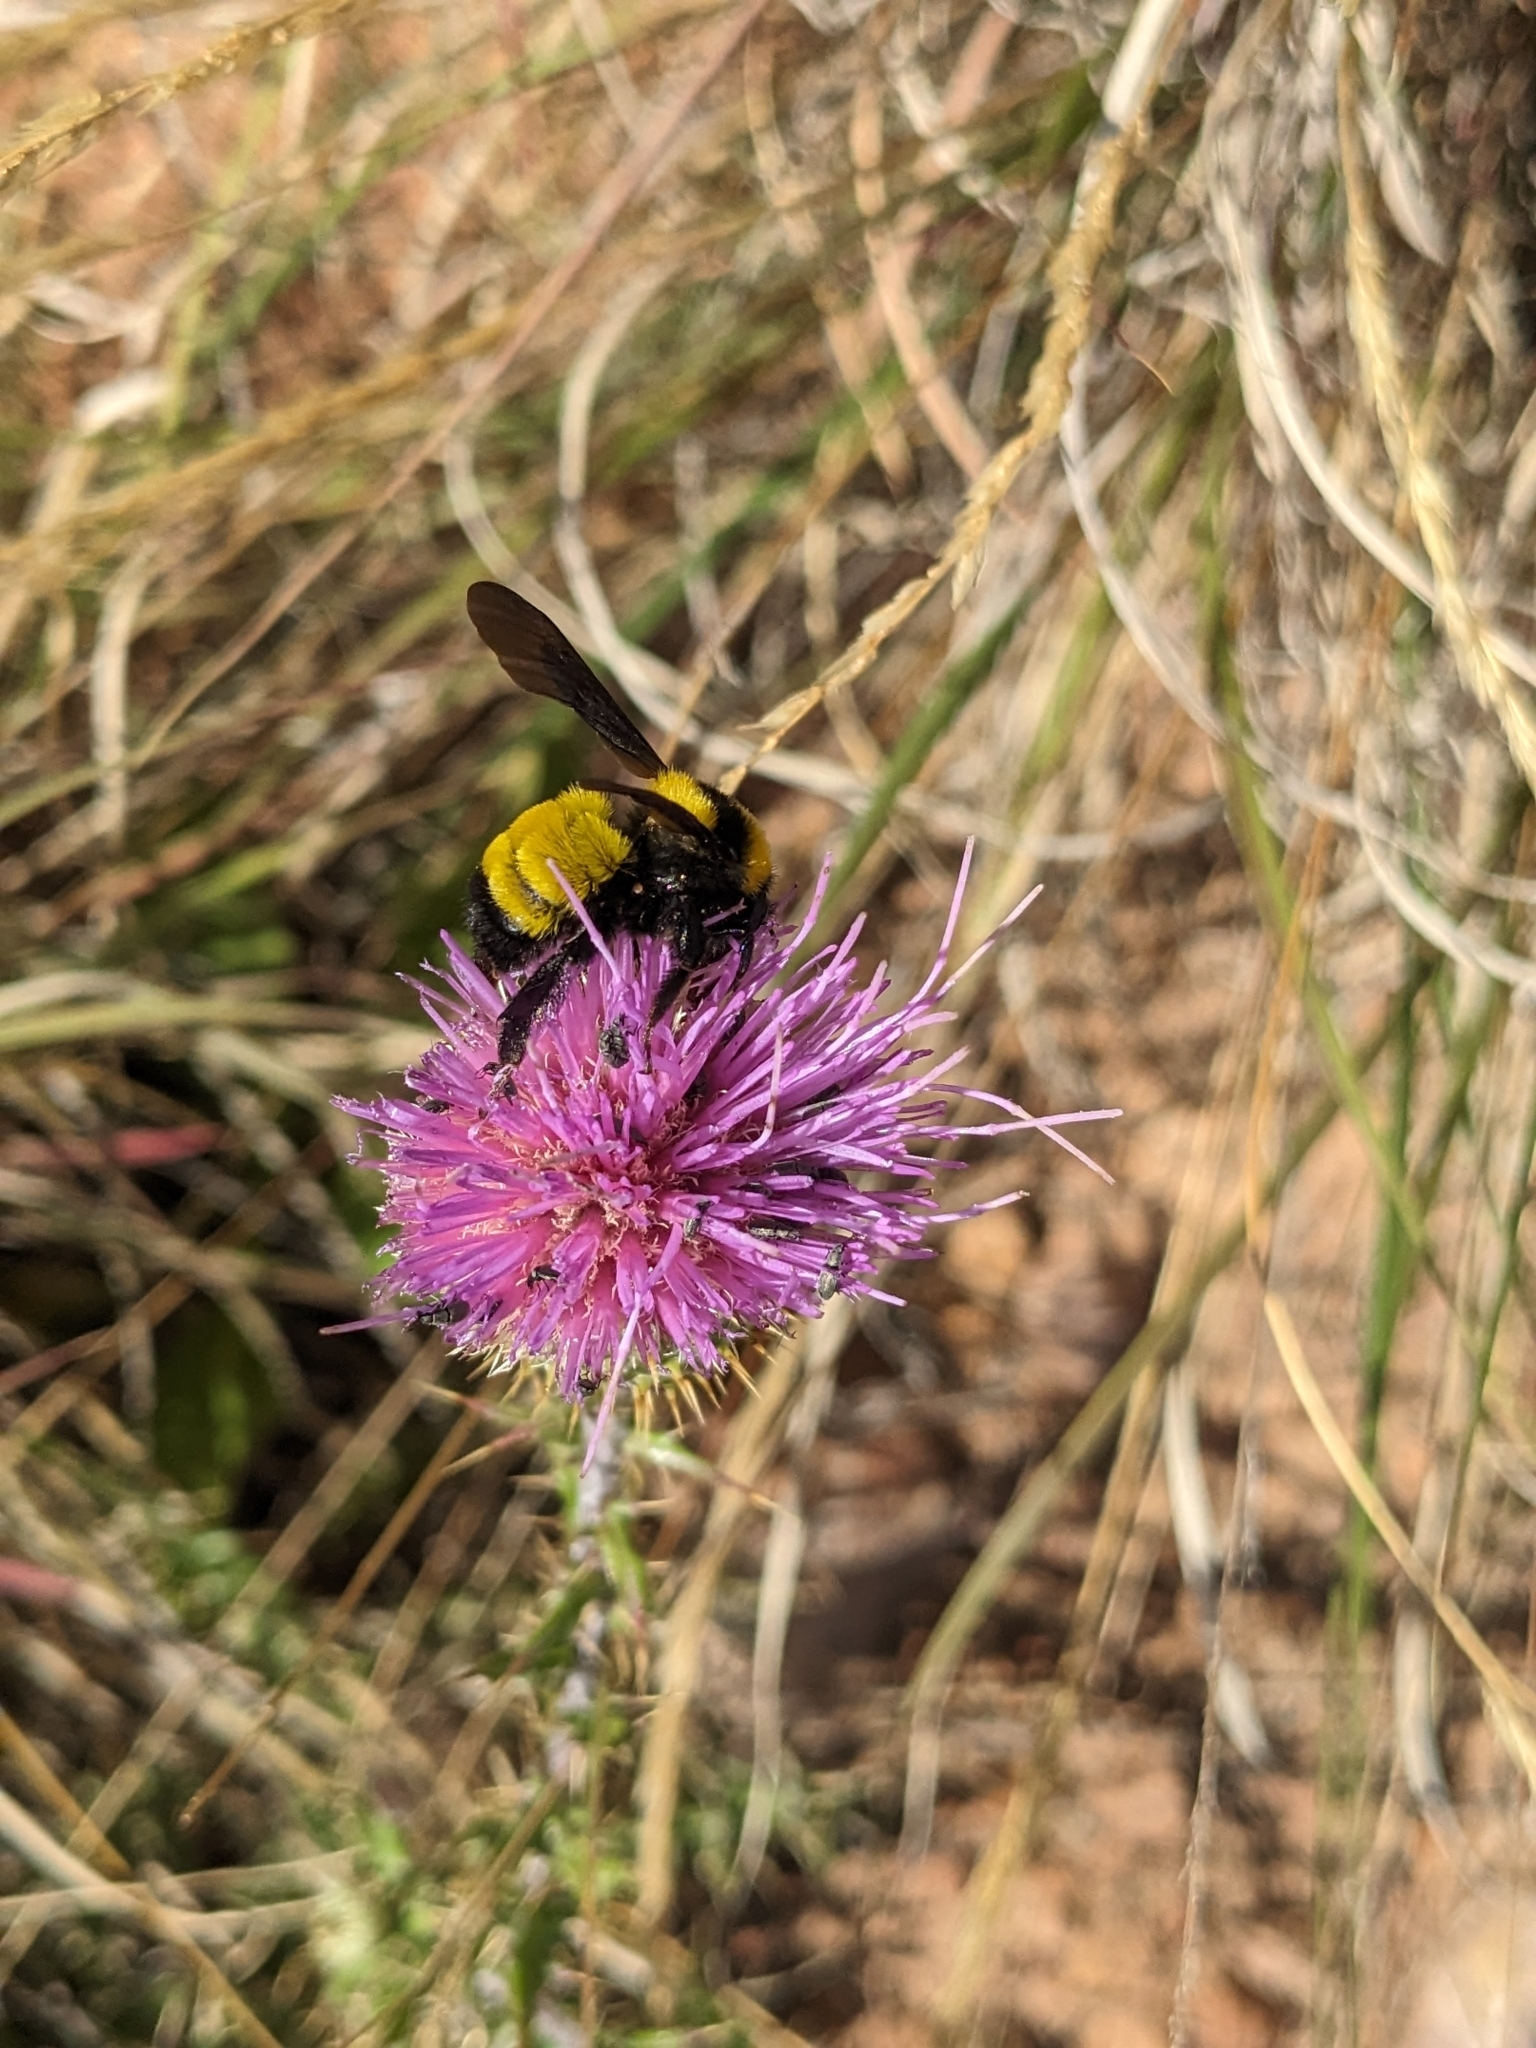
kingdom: Animalia
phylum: Arthropoda
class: Insecta
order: Hymenoptera
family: Apidae
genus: Bombus
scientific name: Bombus sonorus
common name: Sonoran bumble bee
